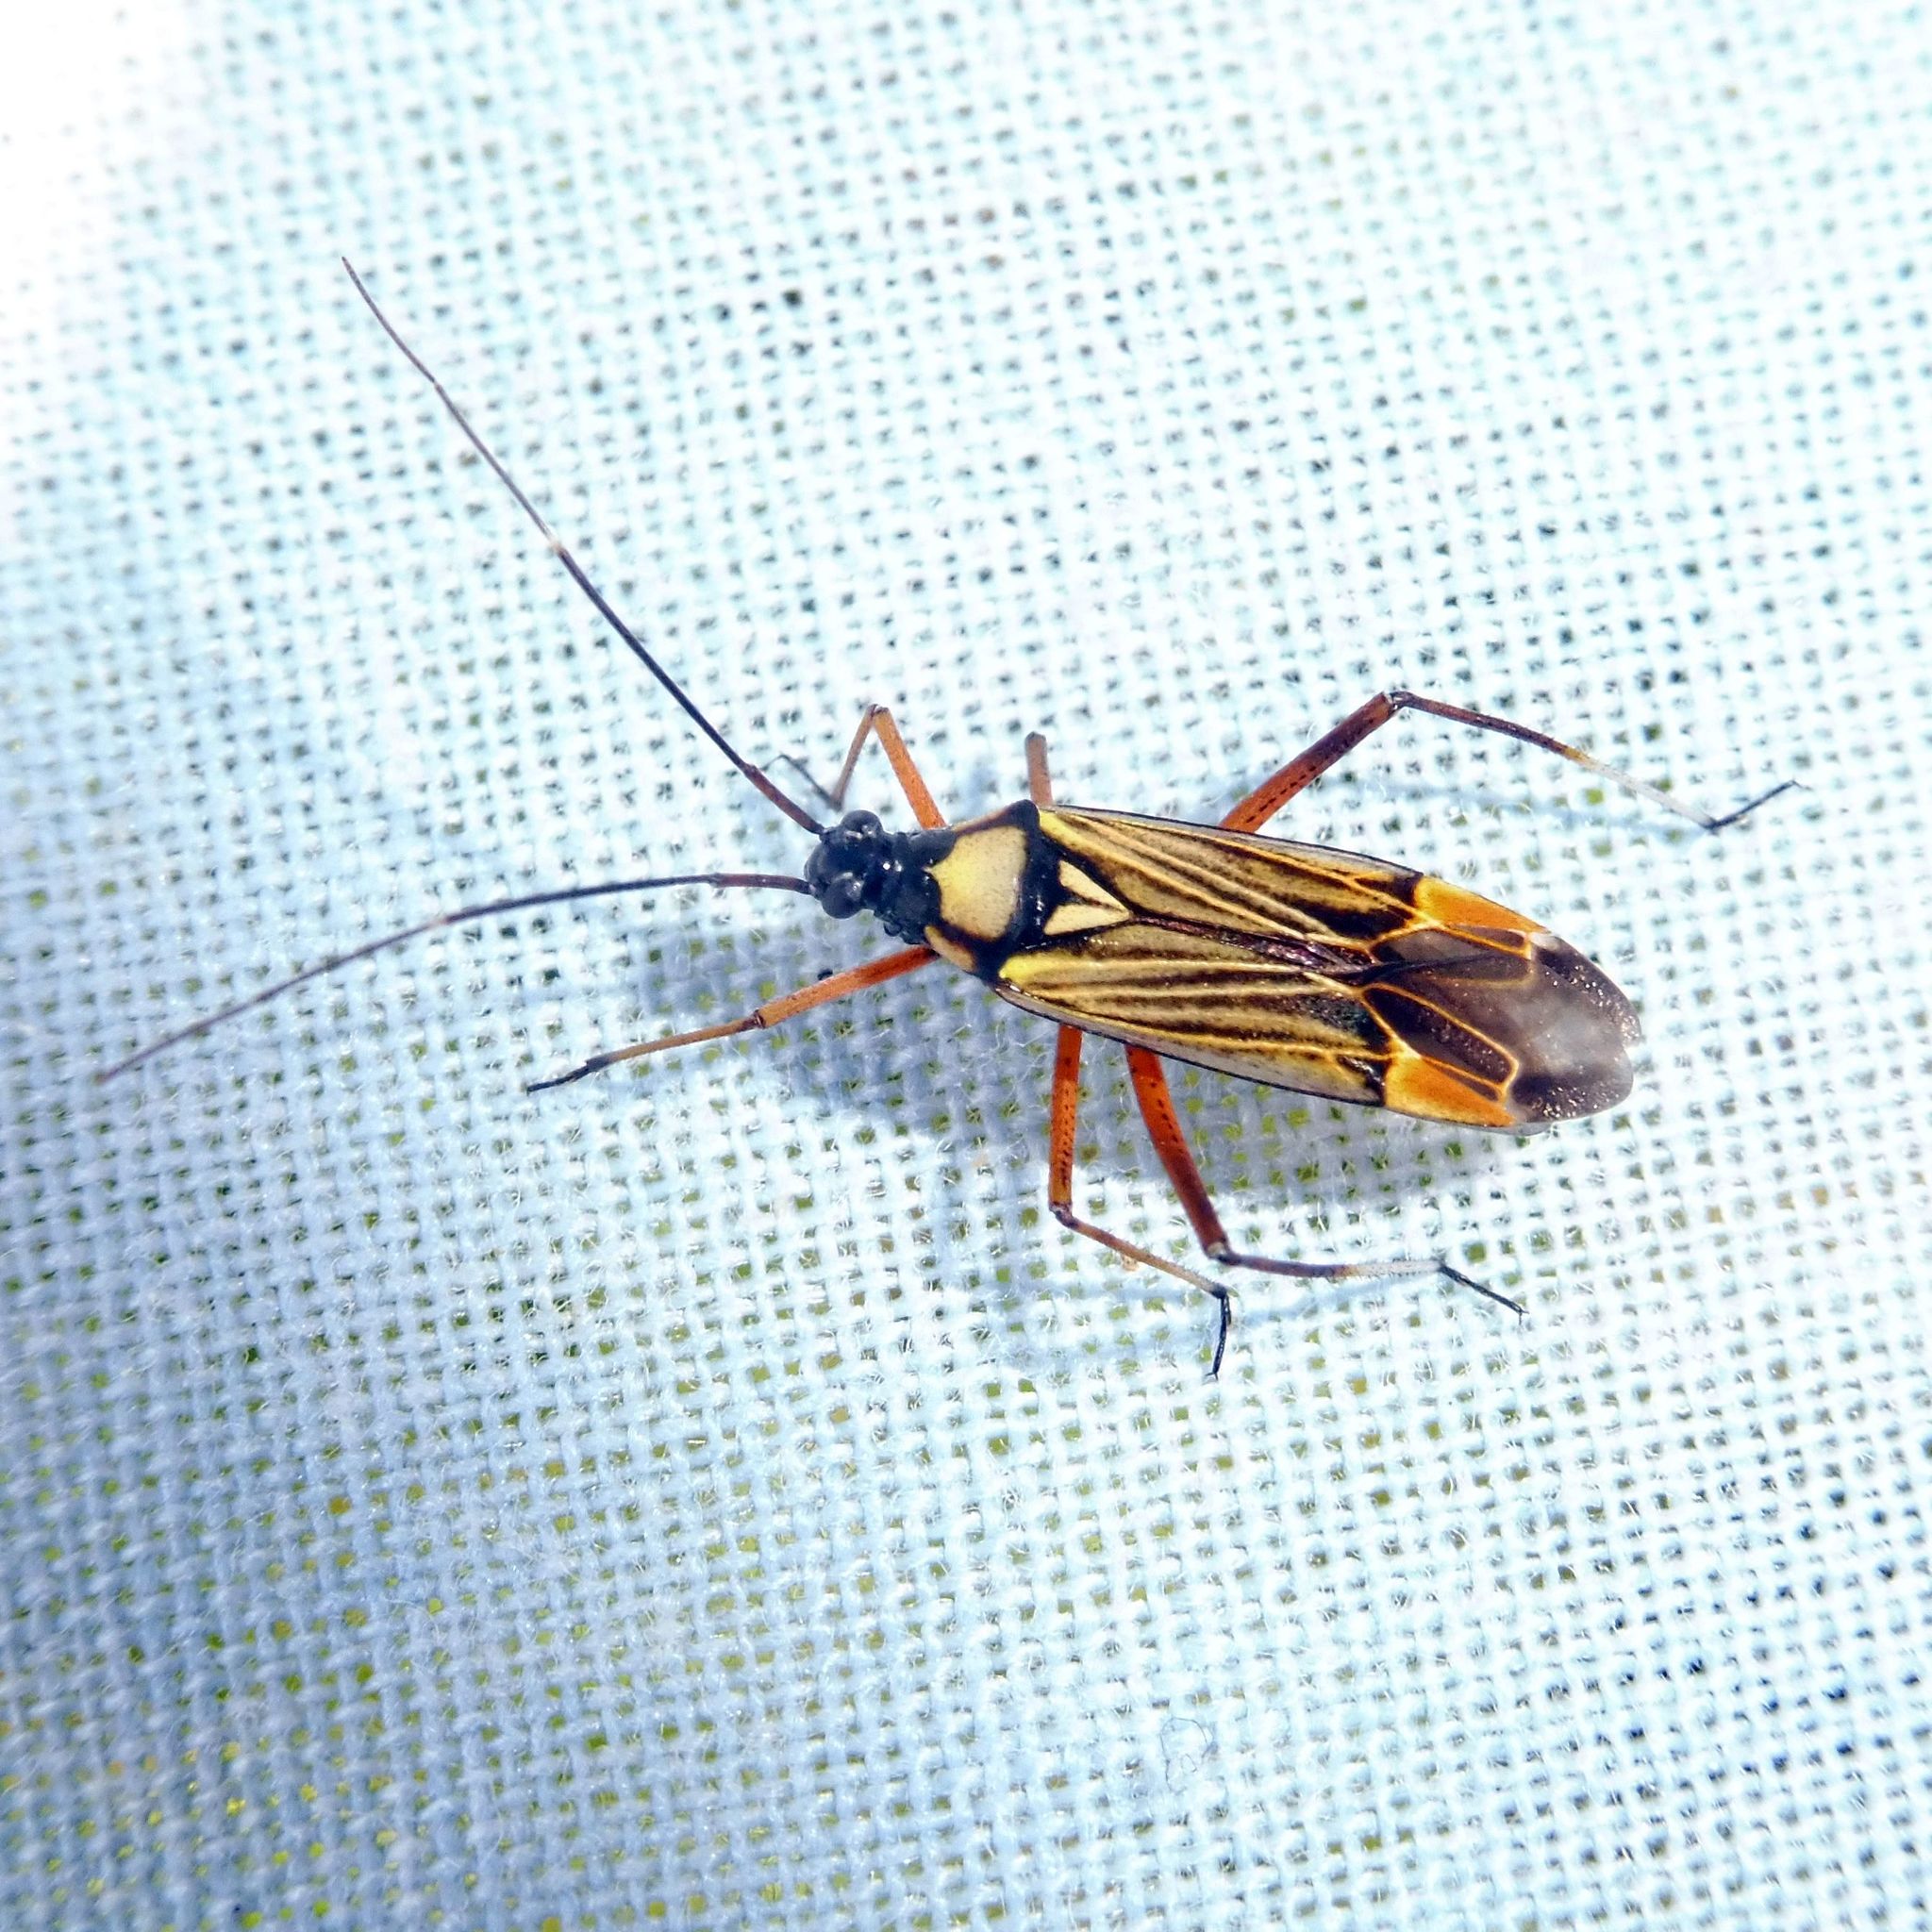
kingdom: Animalia
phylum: Arthropoda
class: Insecta
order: Hemiptera
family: Miridae
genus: Miris
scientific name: Miris striatus
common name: Fine streaked bugkin
